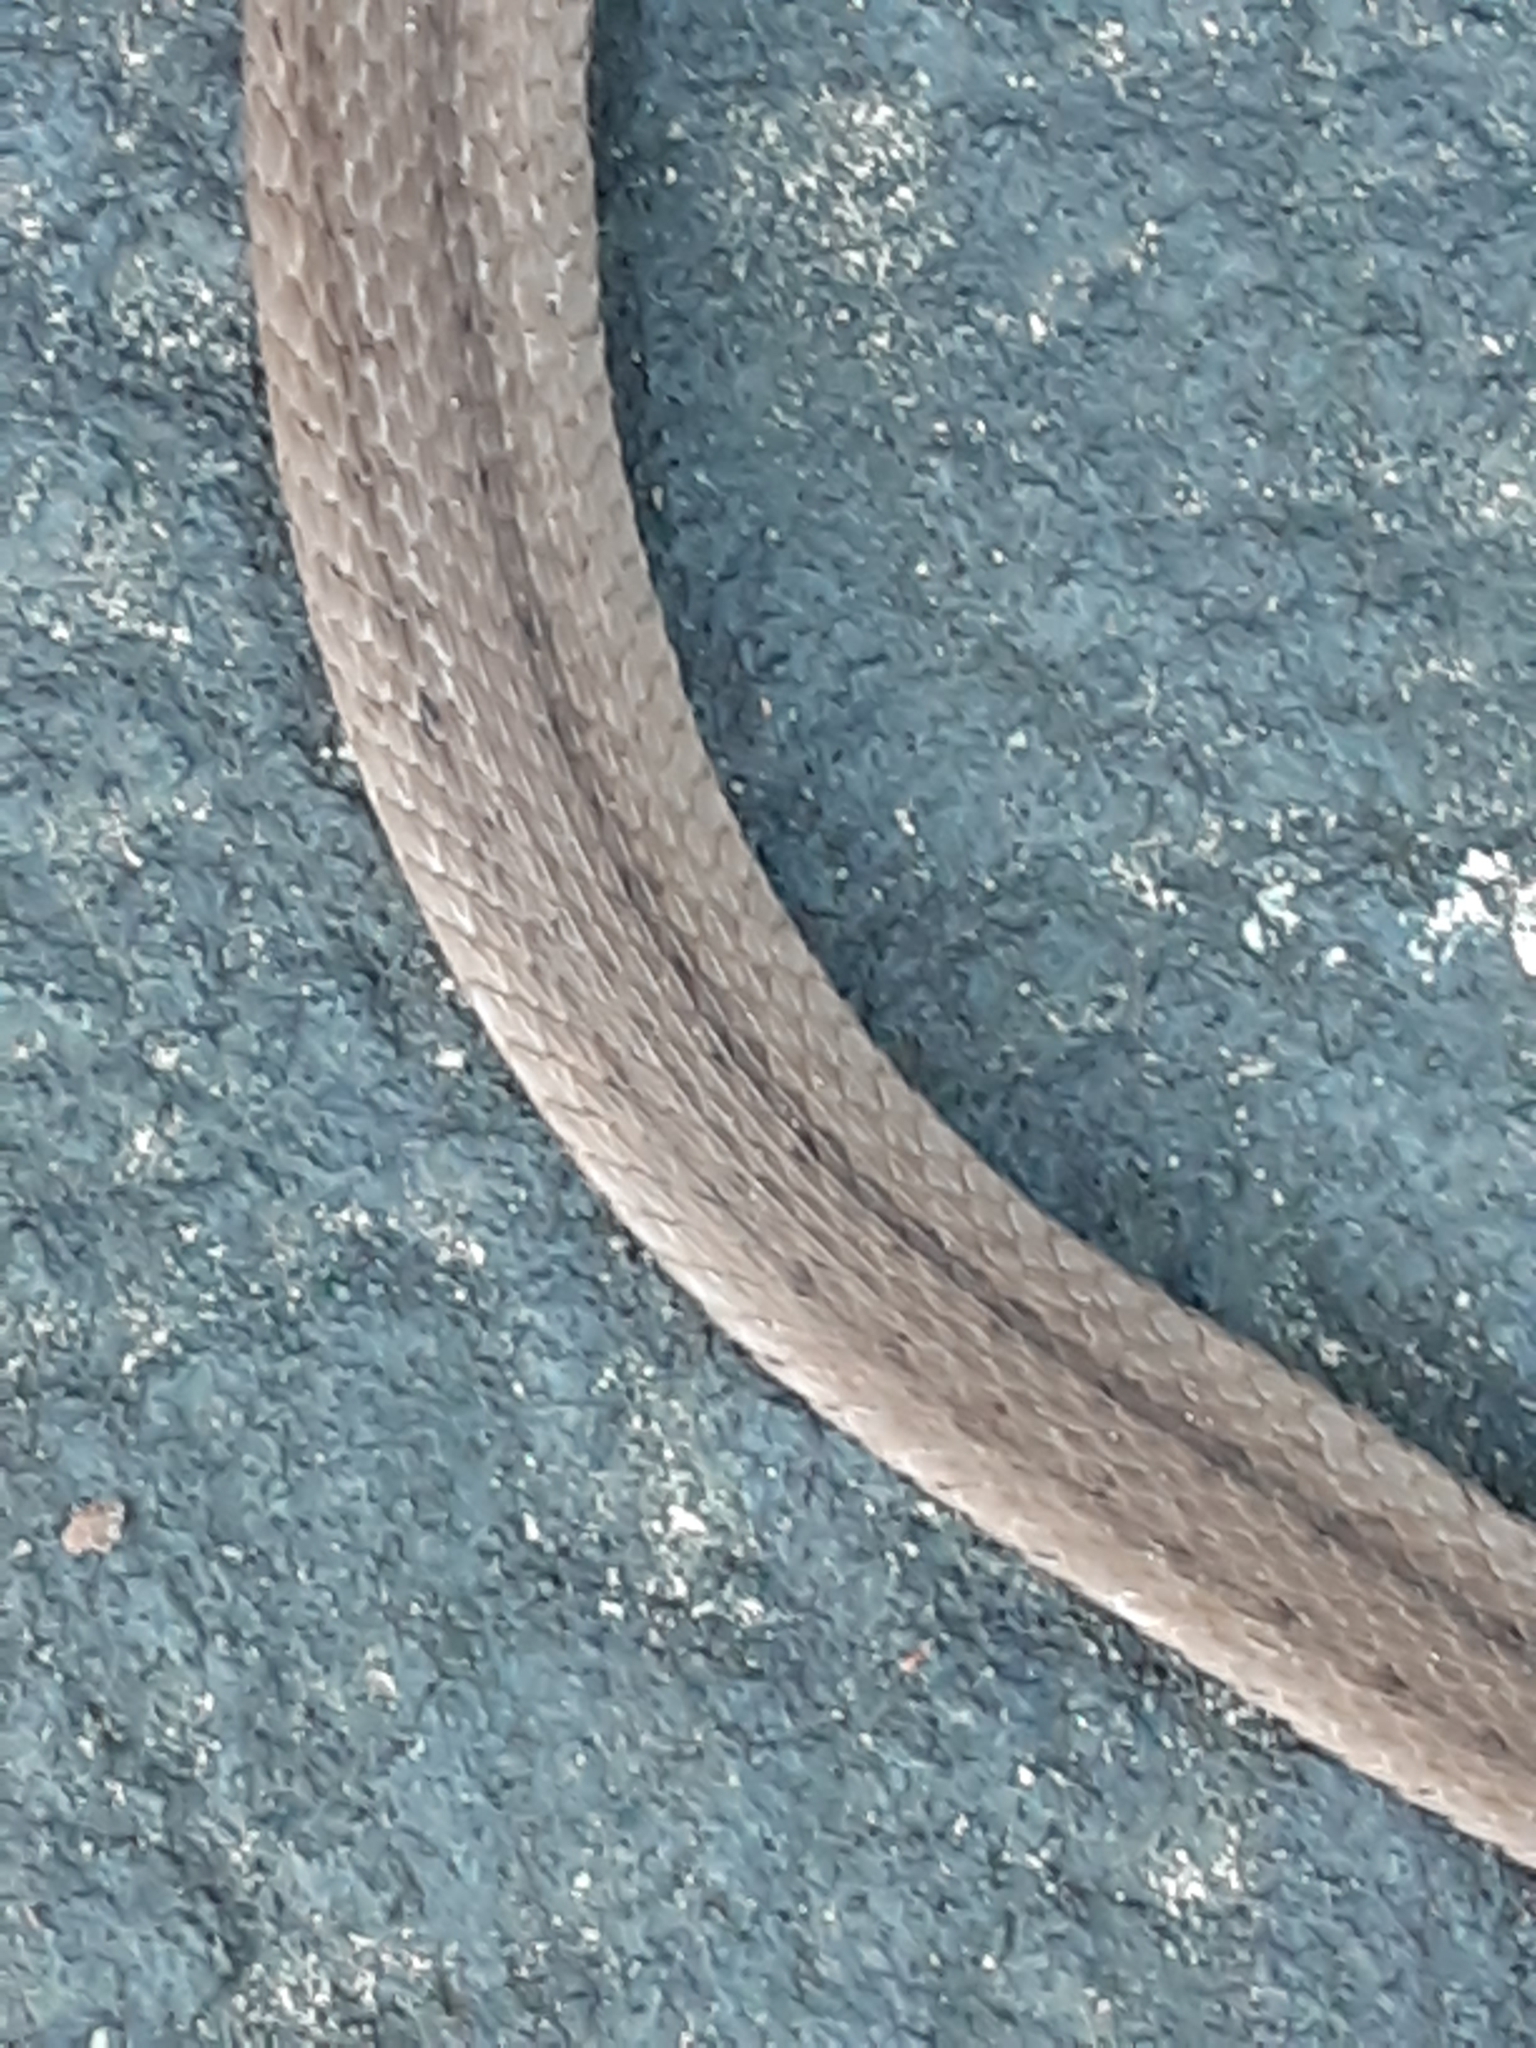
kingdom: Animalia
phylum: Chordata
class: Squamata
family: Colubridae
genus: Storeria
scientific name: Storeria dekayi
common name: (dekay’s) brown snake
